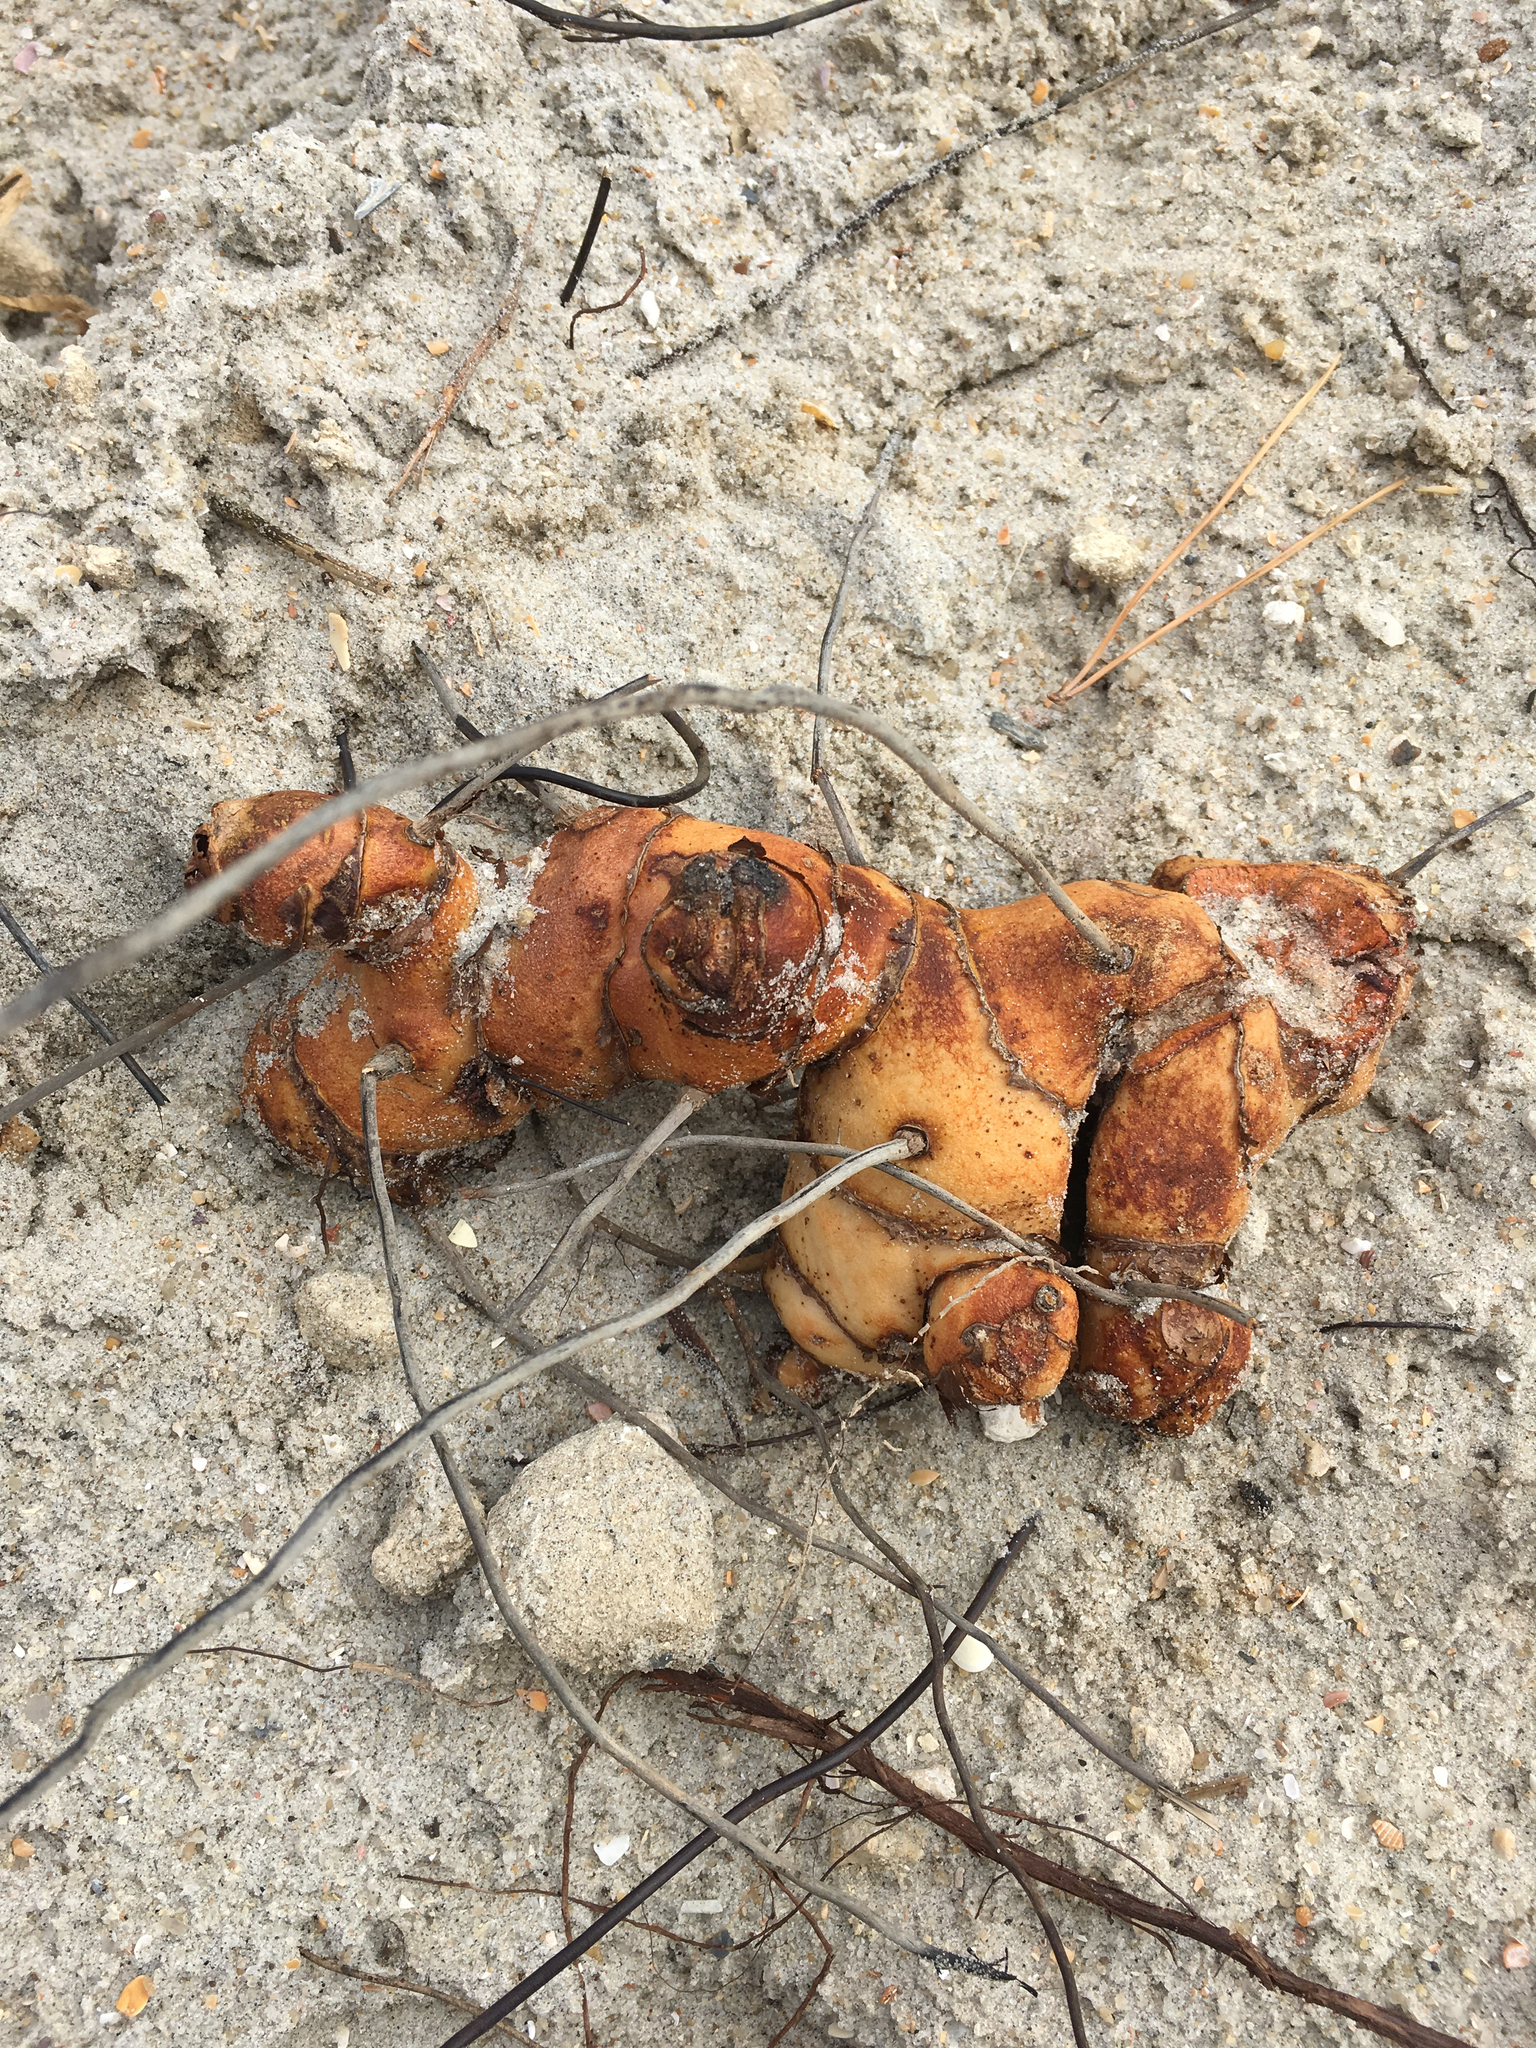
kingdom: Plantae
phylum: Tracheophyta
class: Liliopsida
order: Liliales
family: Smilacaceae
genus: Smilax
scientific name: Smilax auriculata
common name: Wild bamboo
